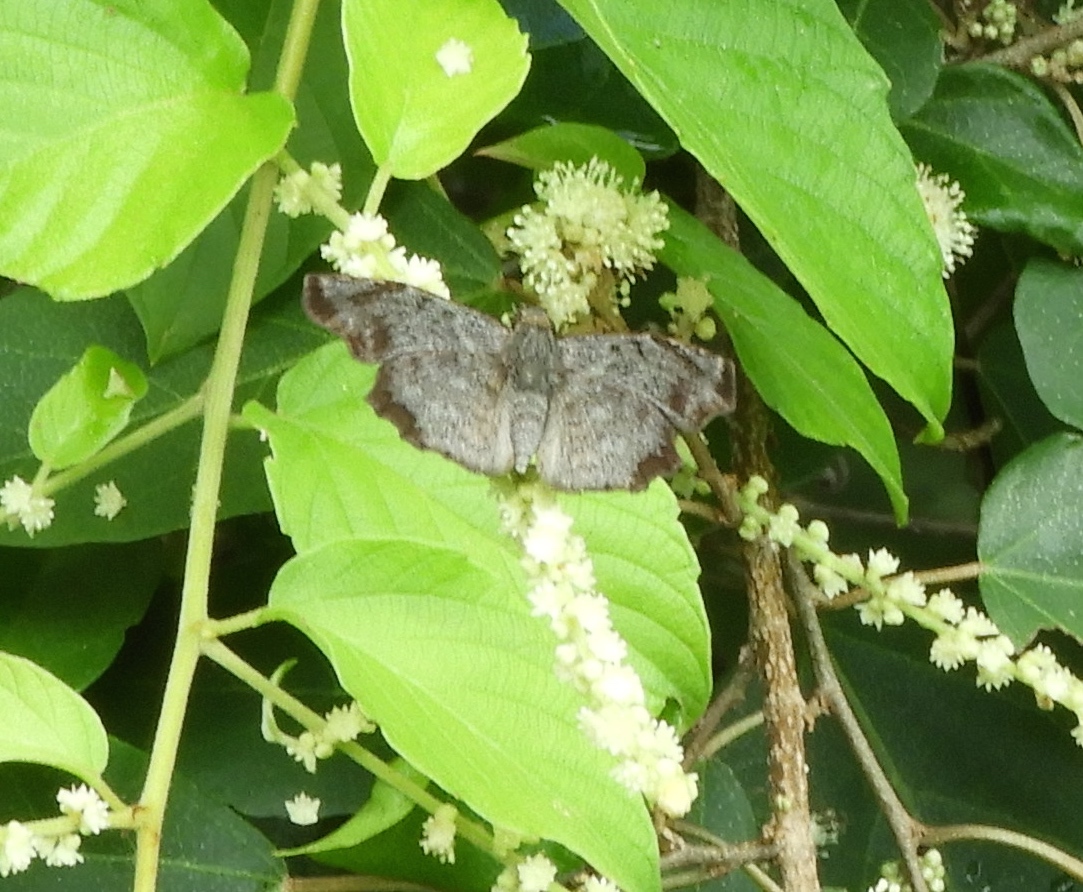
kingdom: Animalia
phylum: Arthropoda
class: Insecta
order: Lepidoptera
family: Hesperiidae
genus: Antigonus
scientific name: Antigonus erosus
